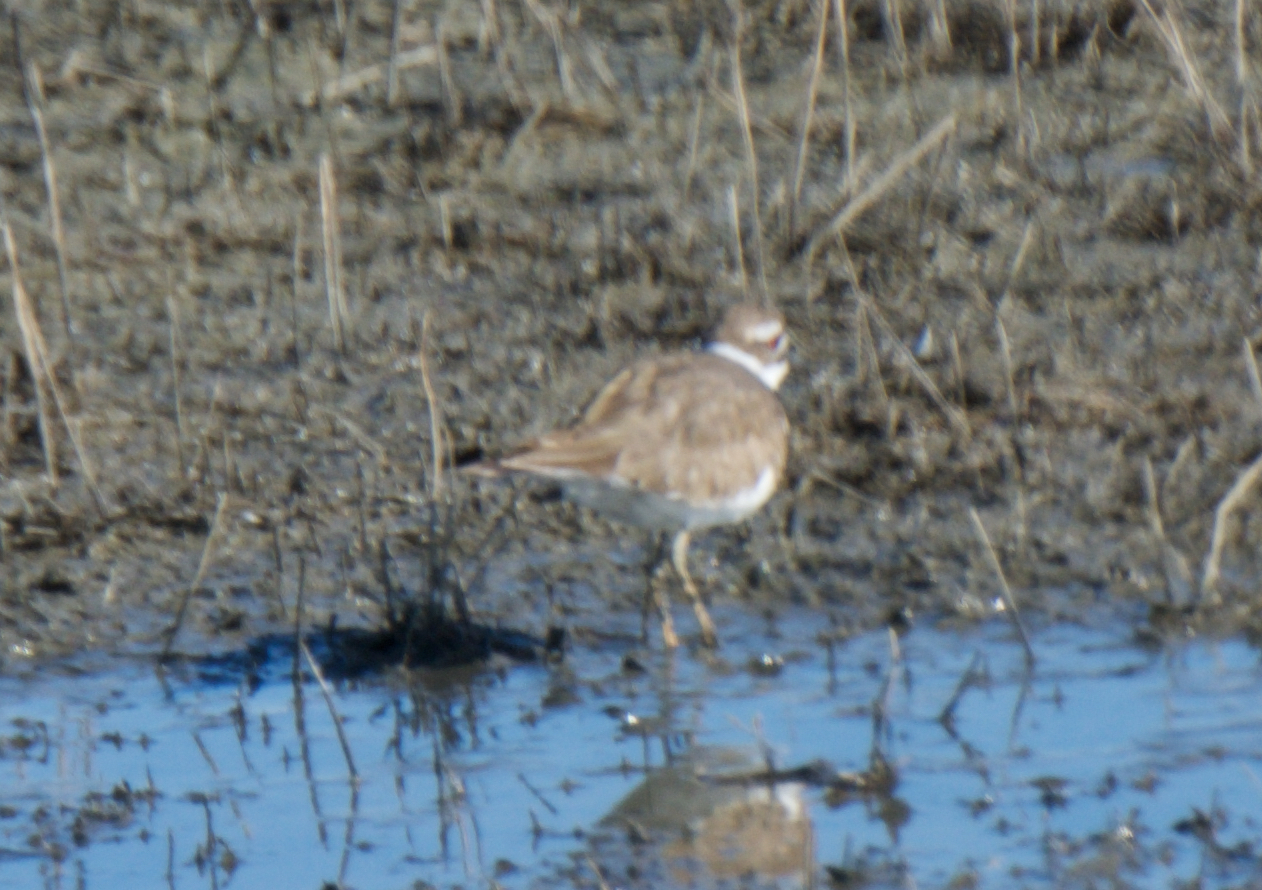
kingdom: Animalia
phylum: Chordata
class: Aves
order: Charadriiformes
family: Charadriidae
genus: Charadrius
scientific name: Charadrius vociferus
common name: Killdeer
